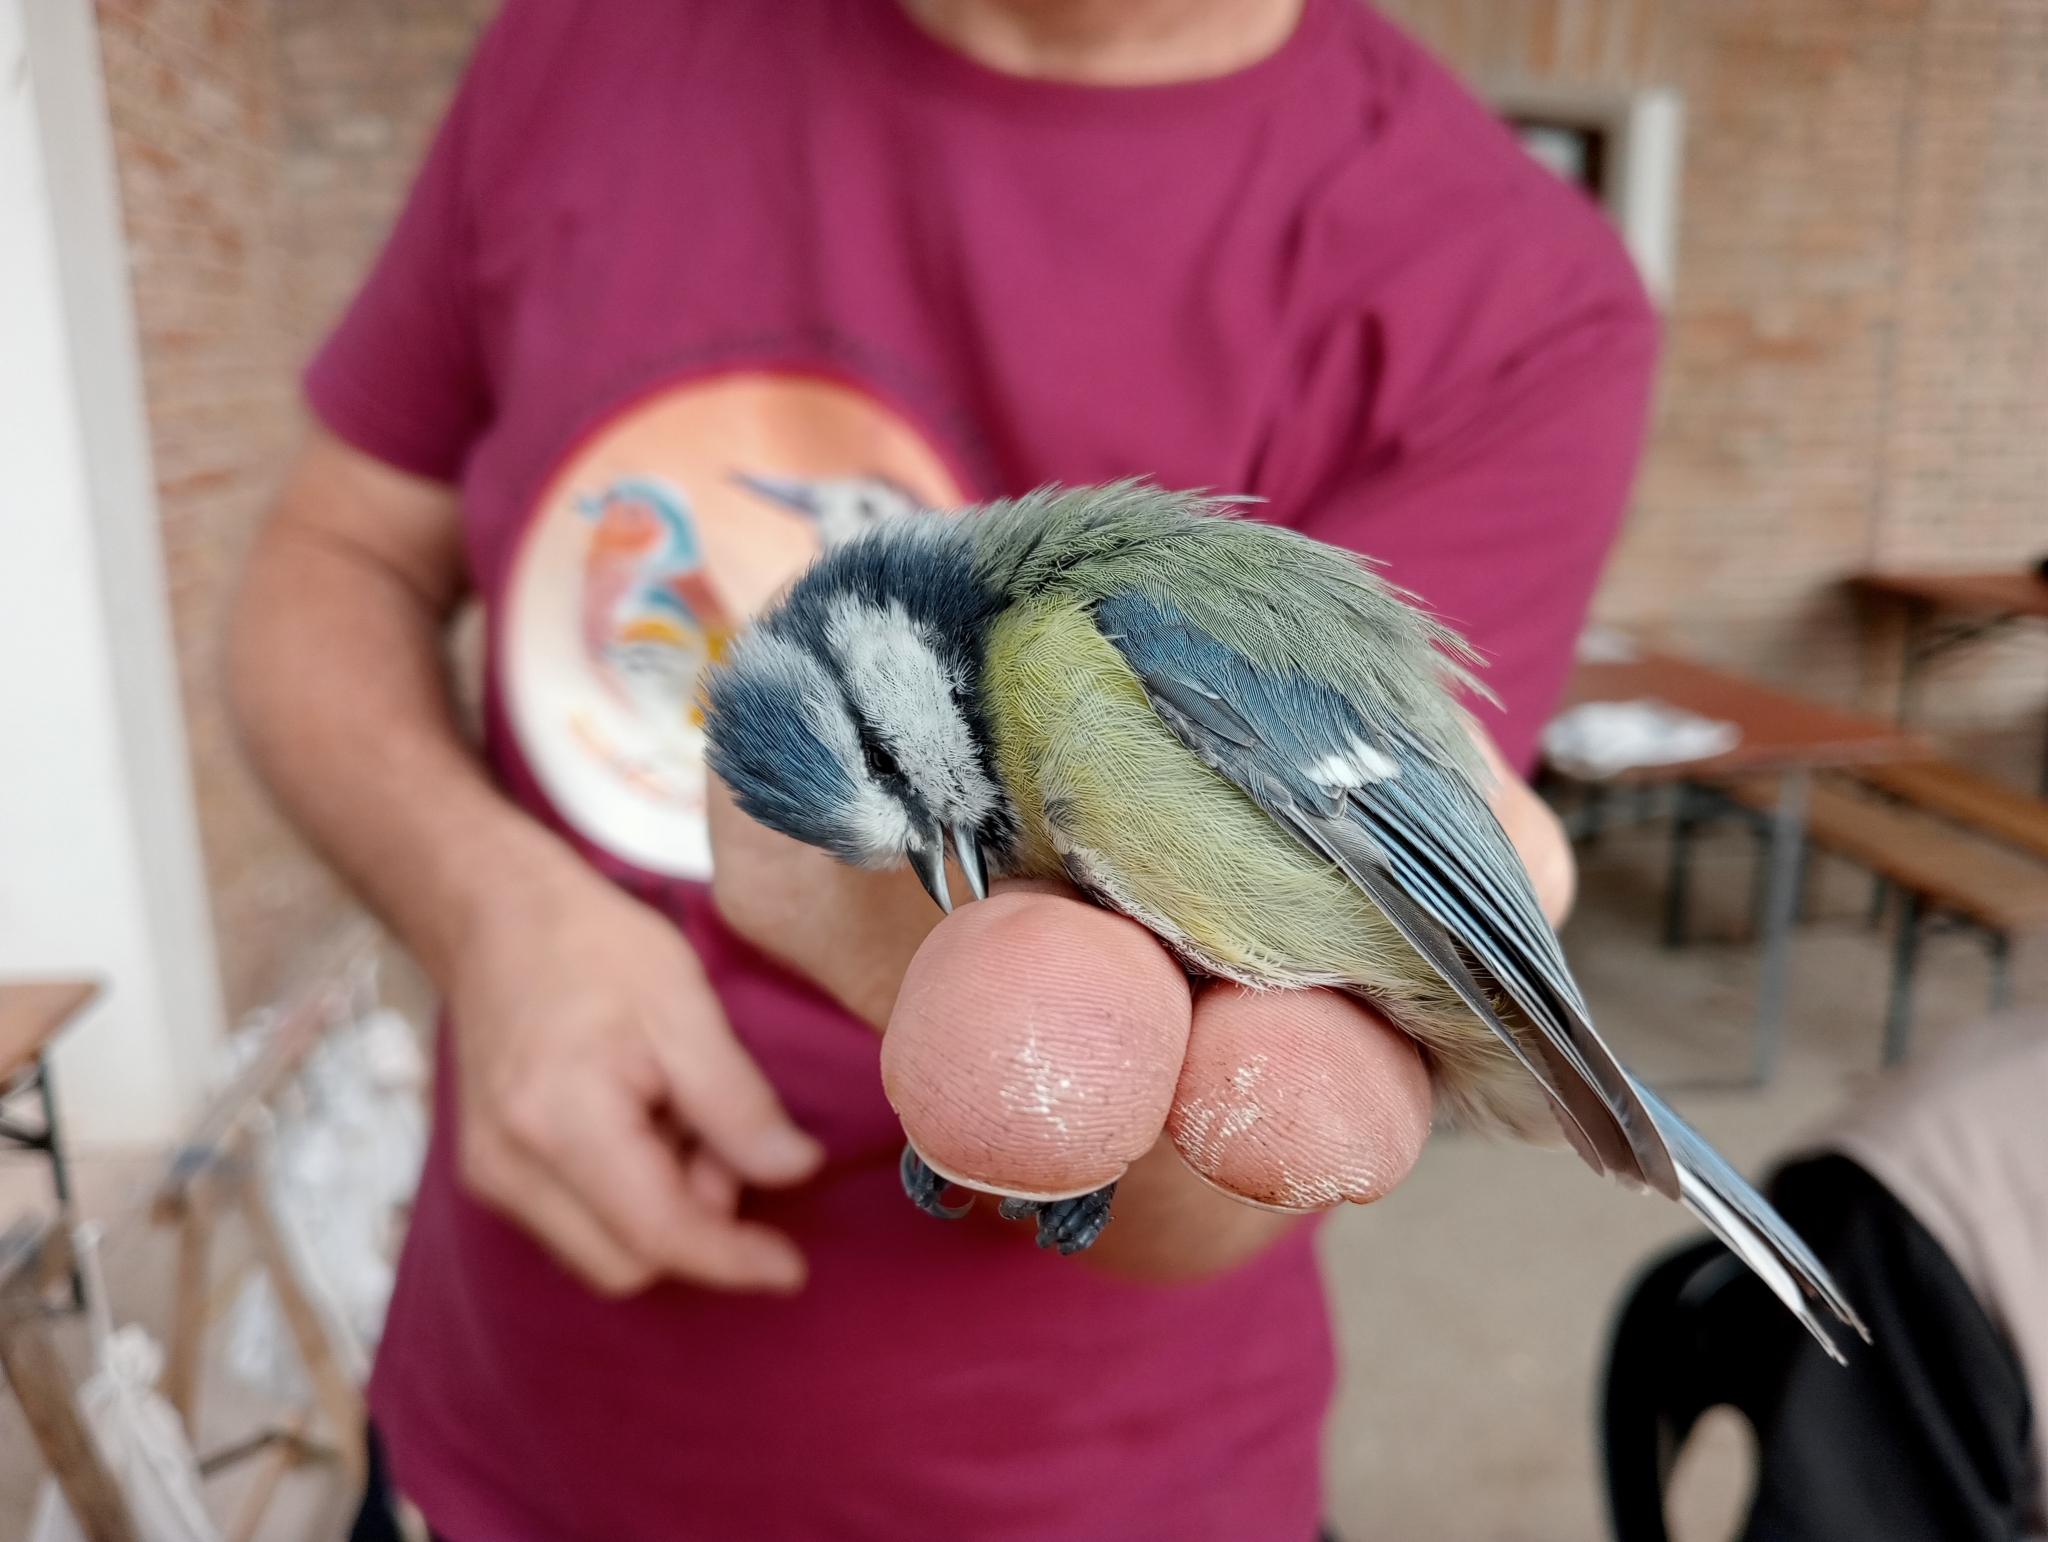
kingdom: Animalia
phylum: Chordata
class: Aves
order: Passeriformes
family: Paridae
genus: Cyanistes
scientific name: Cyanistes caeruleus
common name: Eurasian blue tit
